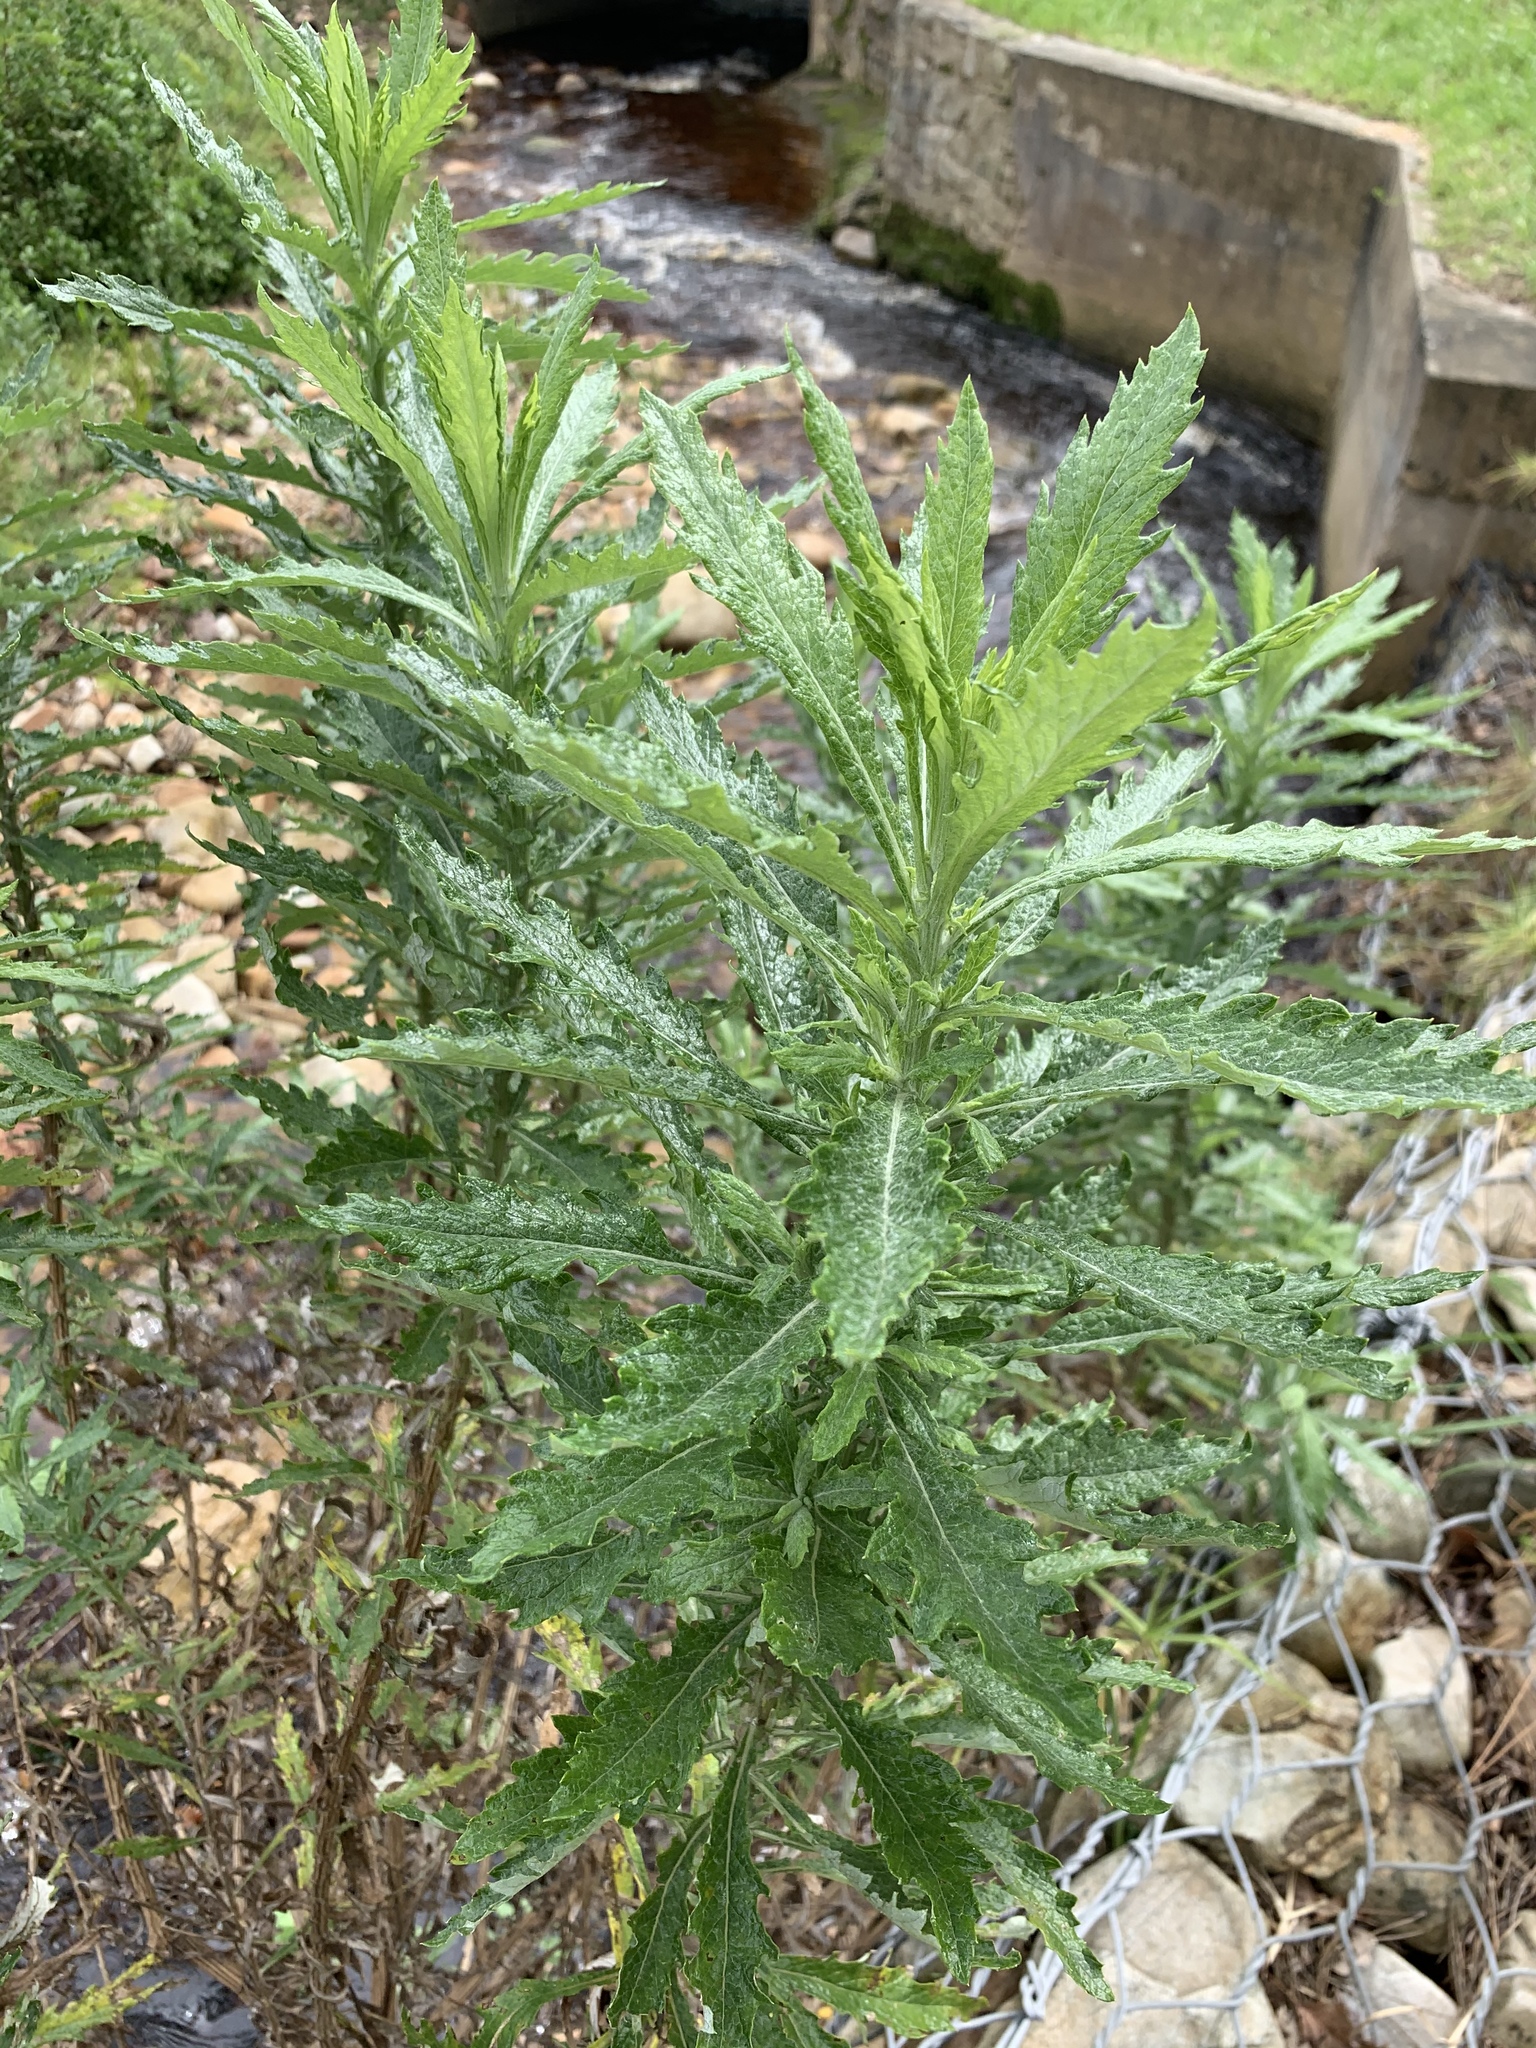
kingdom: Plantae
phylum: Tracheophyta
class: Magnoliopsida
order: Asterales
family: Asteraceae
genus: Senecio
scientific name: Senecio pterophorus
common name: Shoddy ragwort
